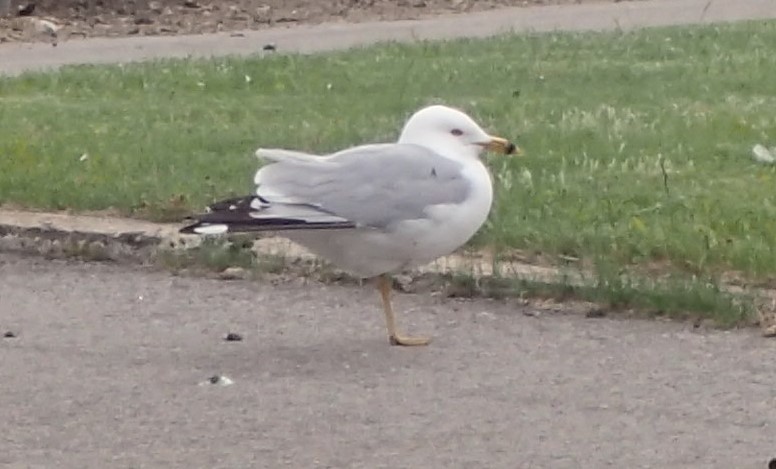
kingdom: Animalia
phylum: Chordata
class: Aves
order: Charadriiformes
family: Laridae
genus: Larus
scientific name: Larus delawarensis
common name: Ring-billed gull
